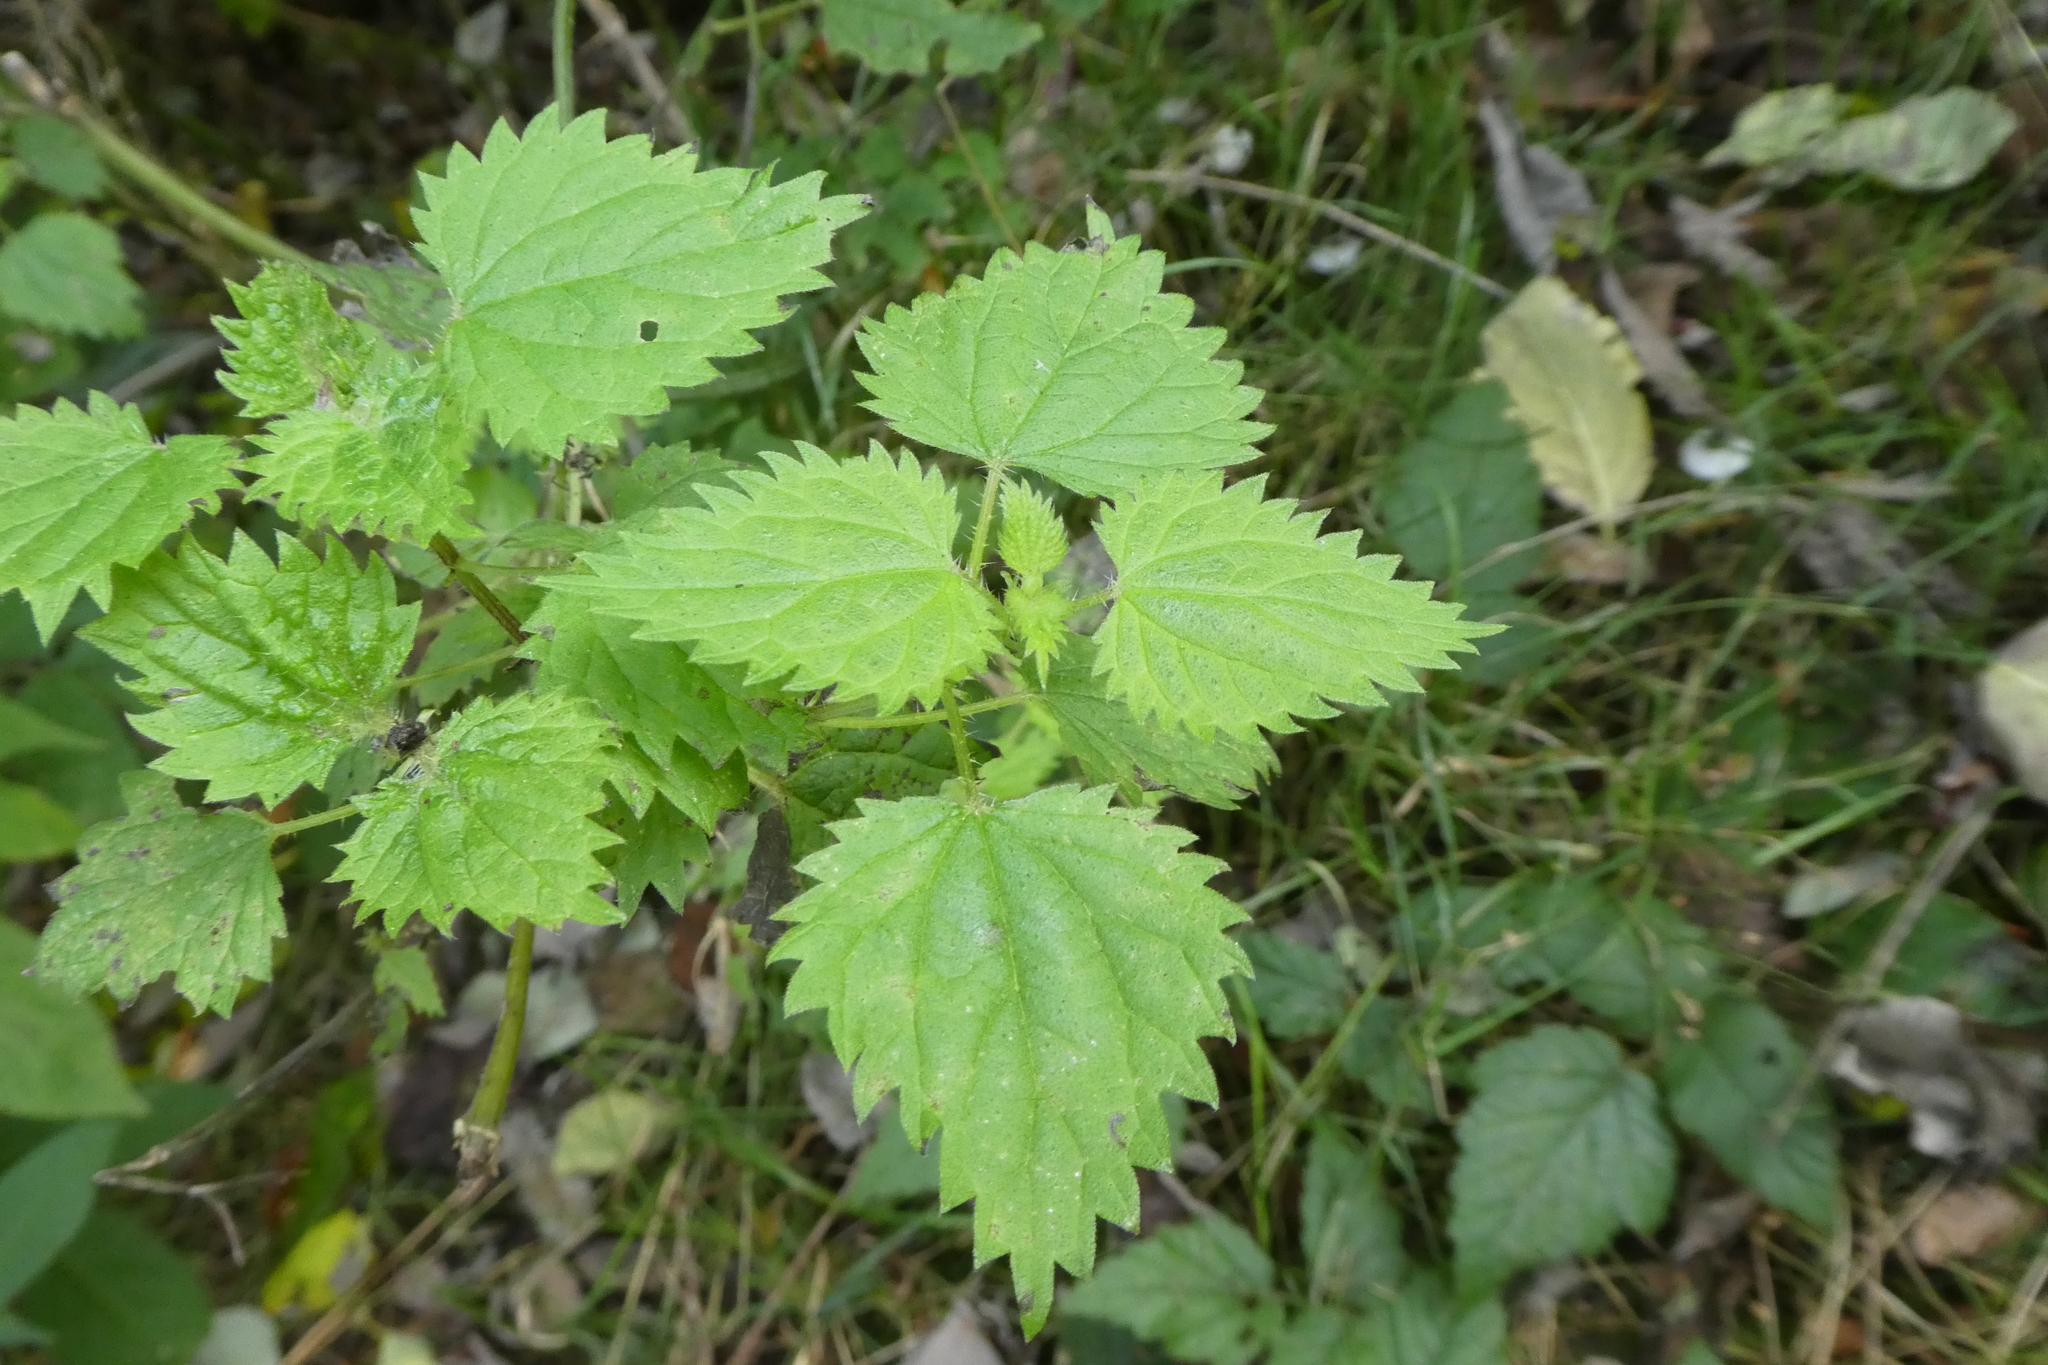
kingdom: Plantae
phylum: Tracheophyta
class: Magnoliopsida
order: Rosales
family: Urticaceae
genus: Urtica
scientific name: Urtica gracilis
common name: Slender stinging nettle
